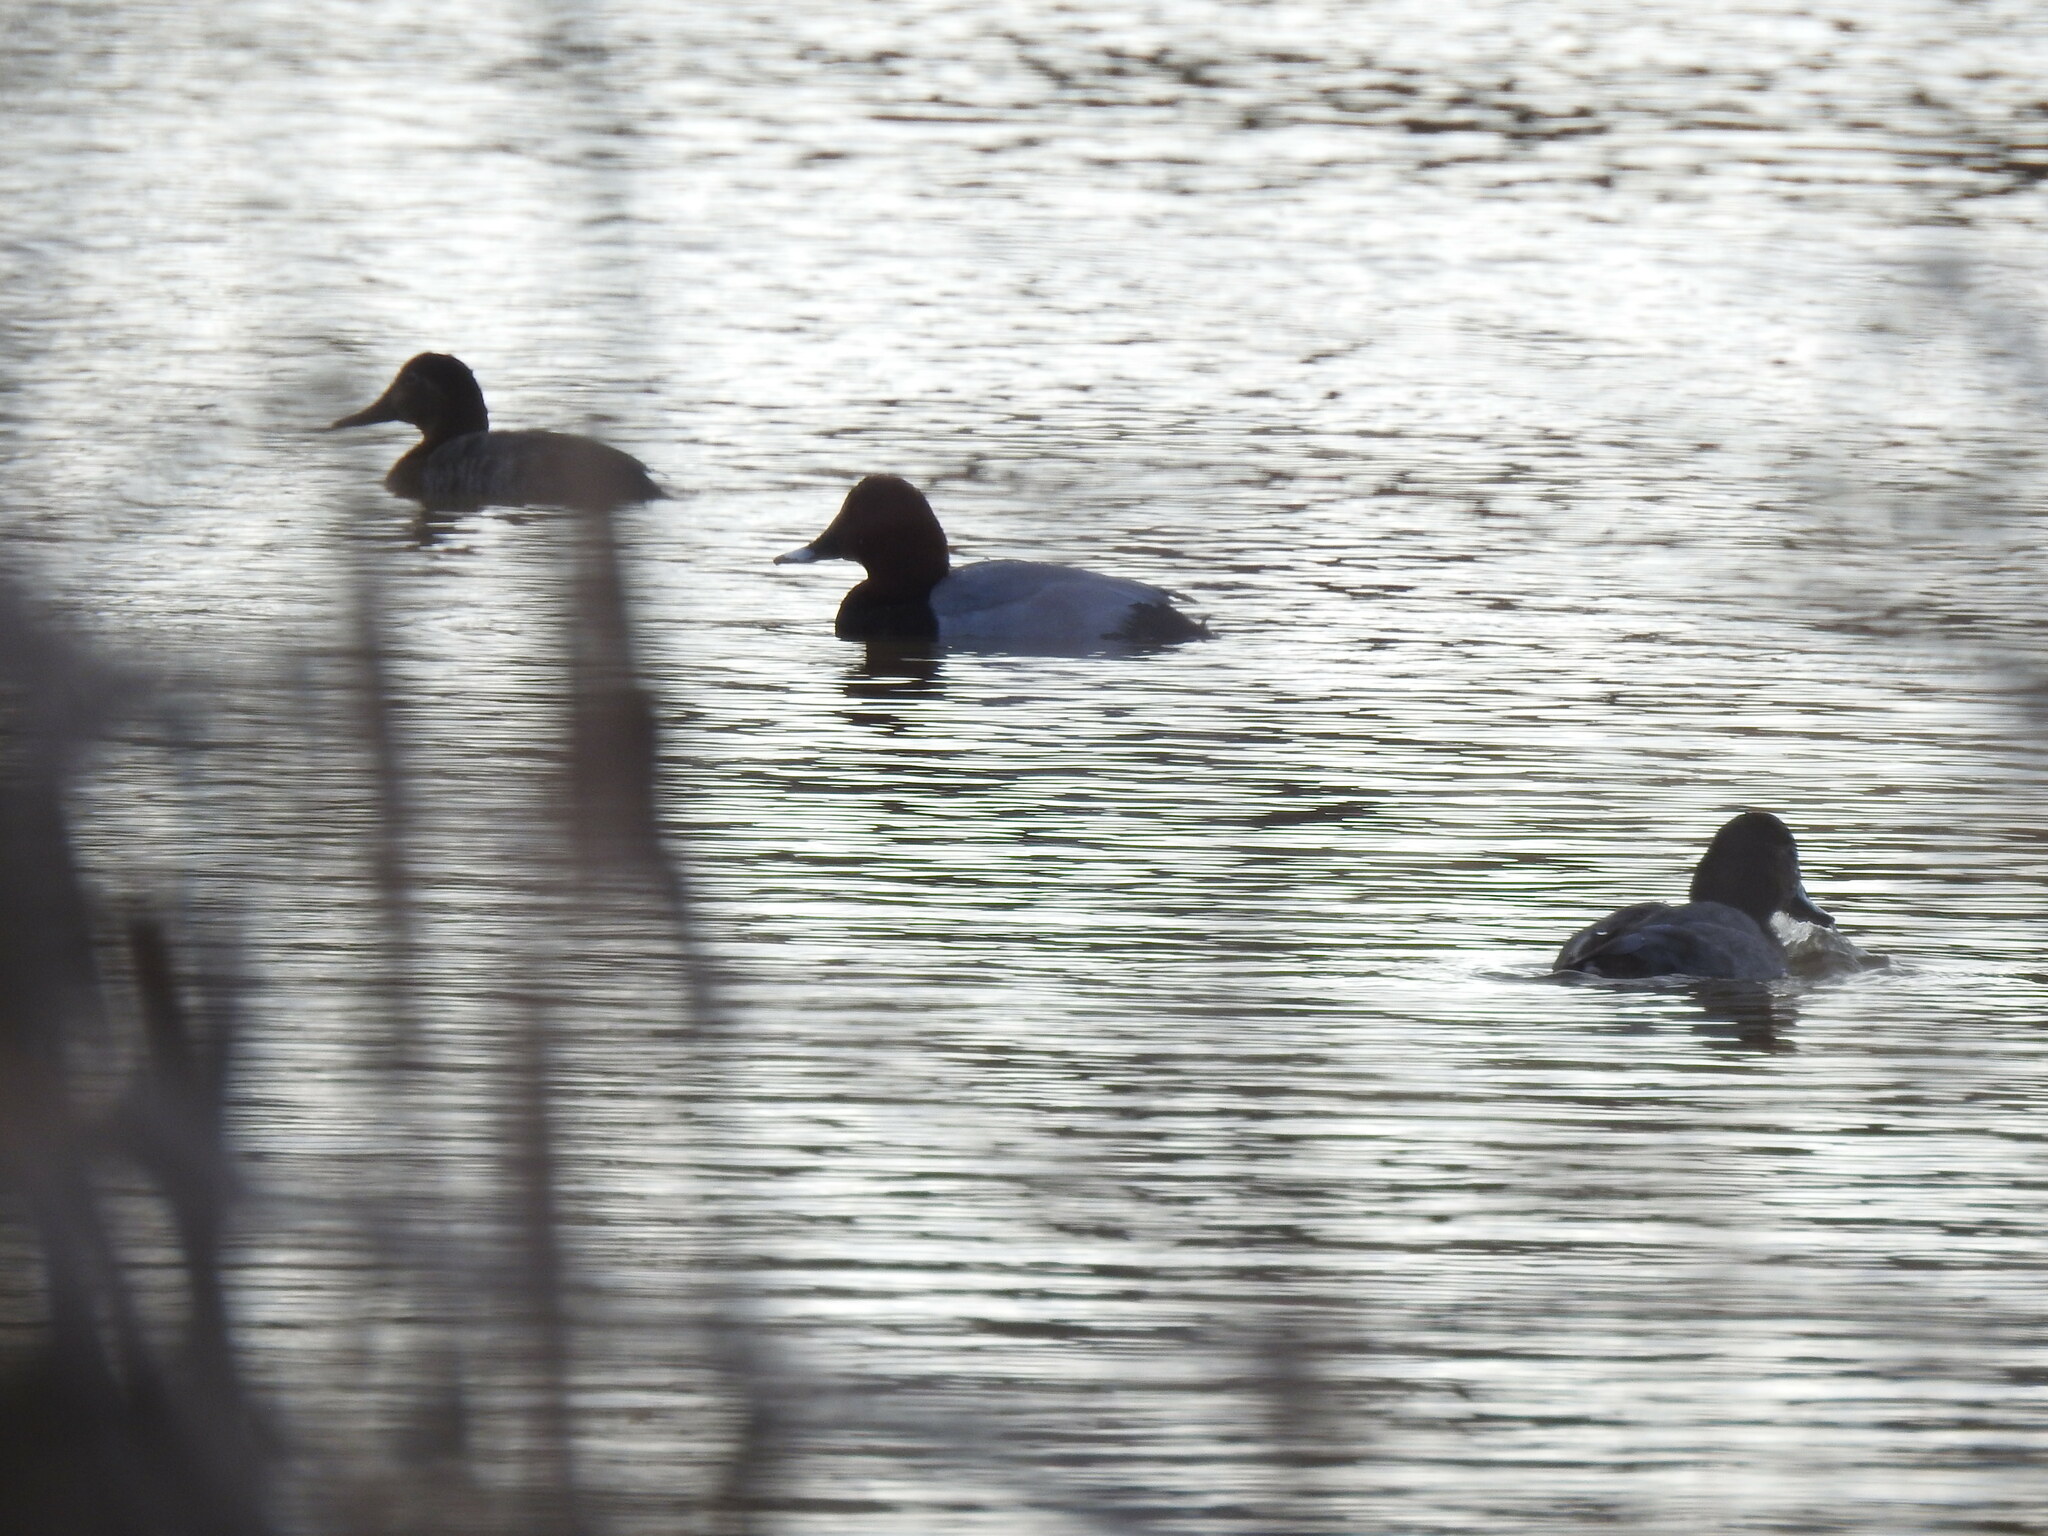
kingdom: Animalia
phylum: Chordata
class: Aves
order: Anseriformes
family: Anatidae
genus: Aythya
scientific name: Aythya ferina
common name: Common pochard
